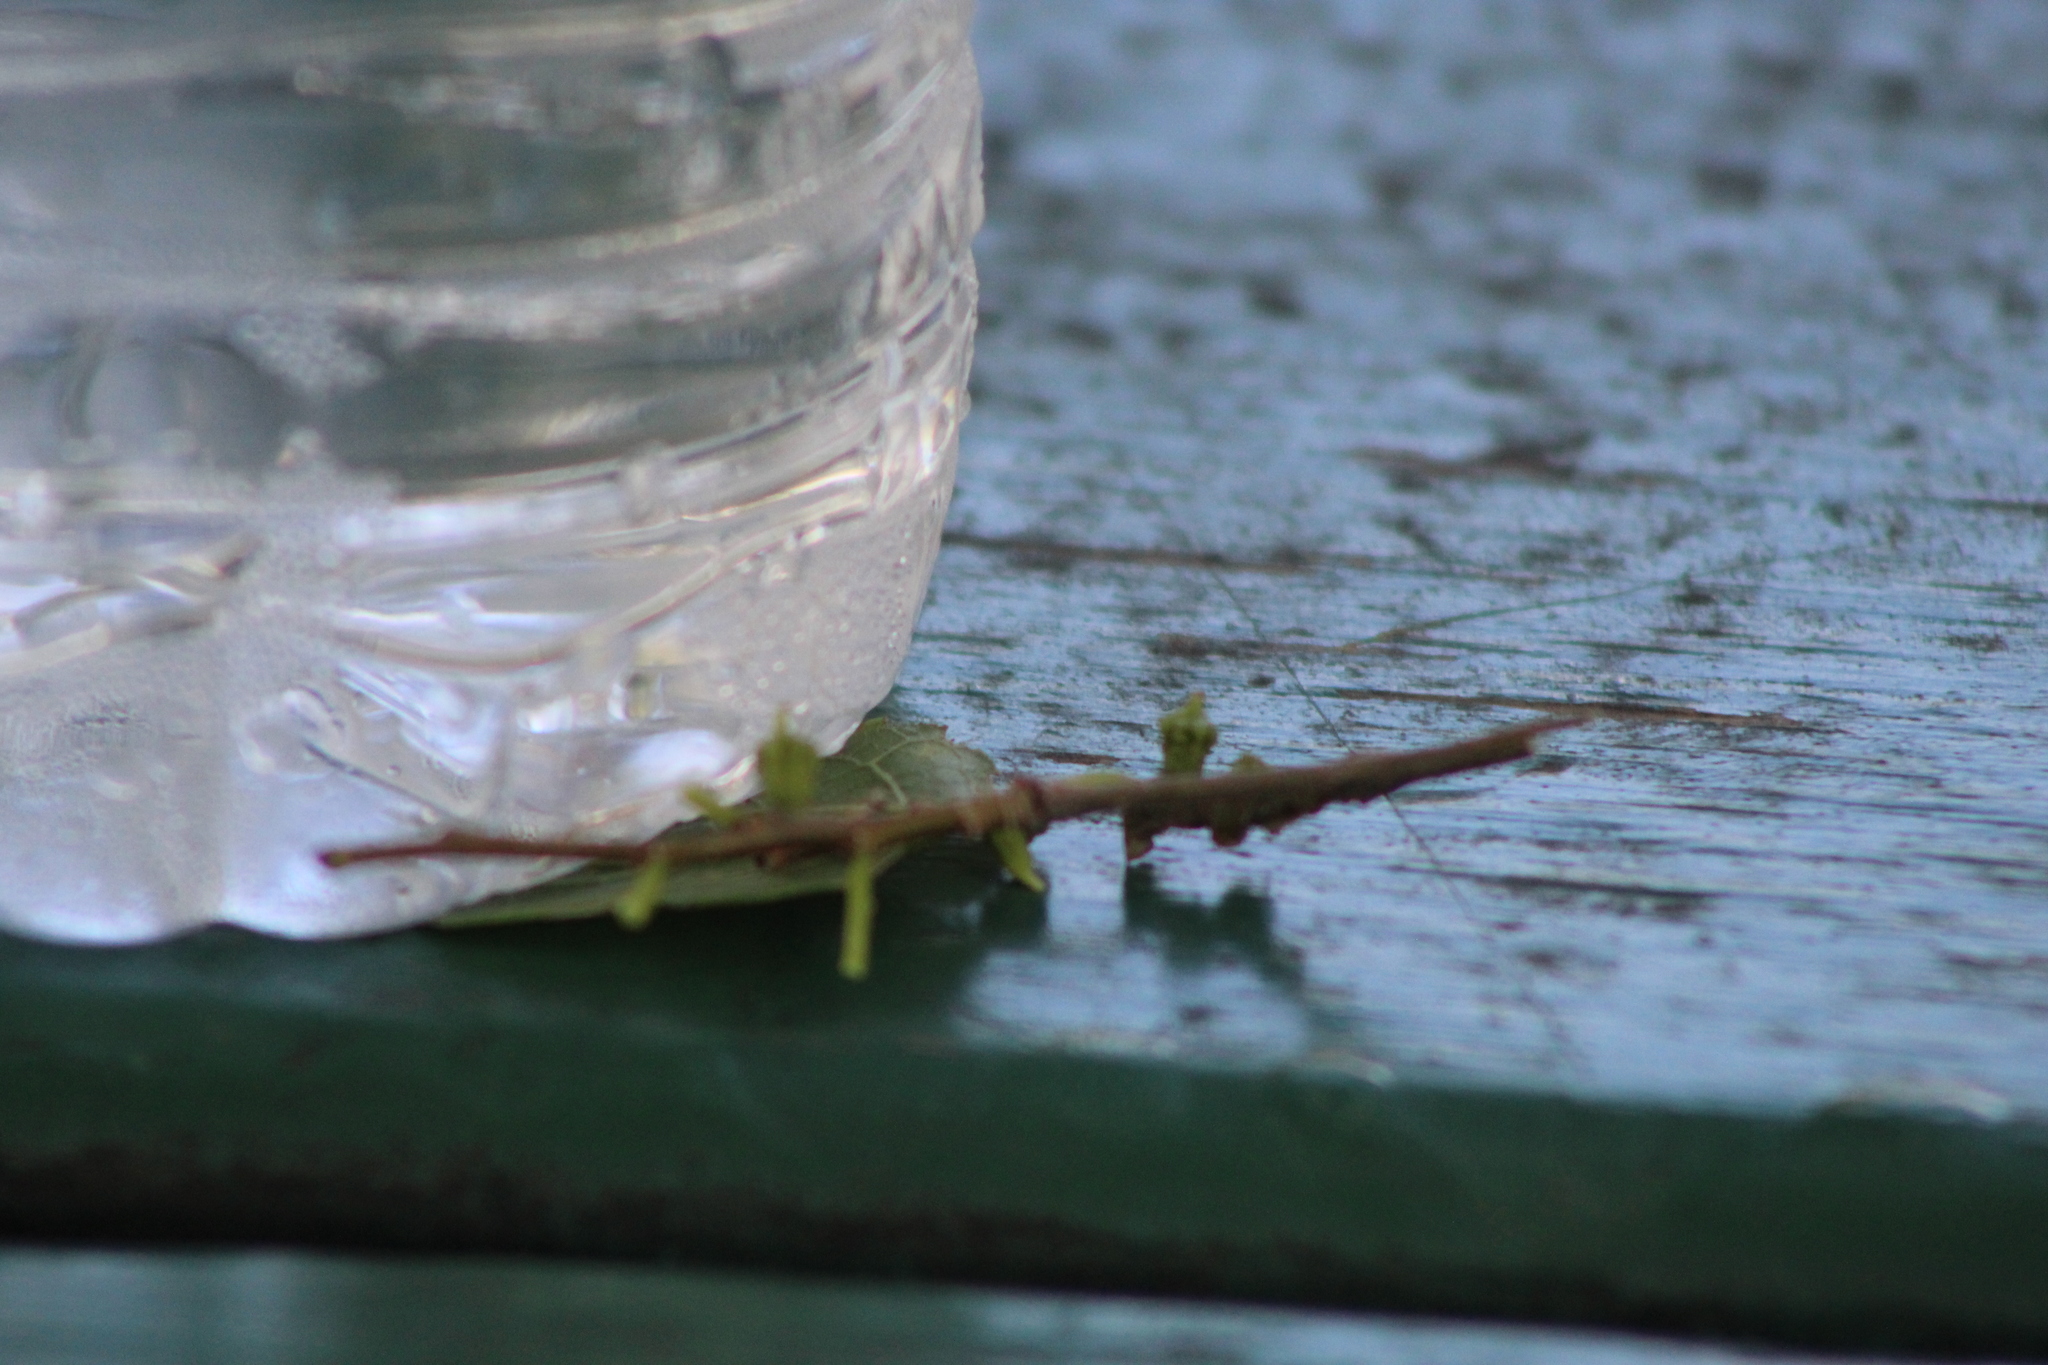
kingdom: Animalia
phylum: Arthropoda
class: Insecta
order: Diptera
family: Cecidomyiidae
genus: Celticecis
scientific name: Celticecis ramicola
